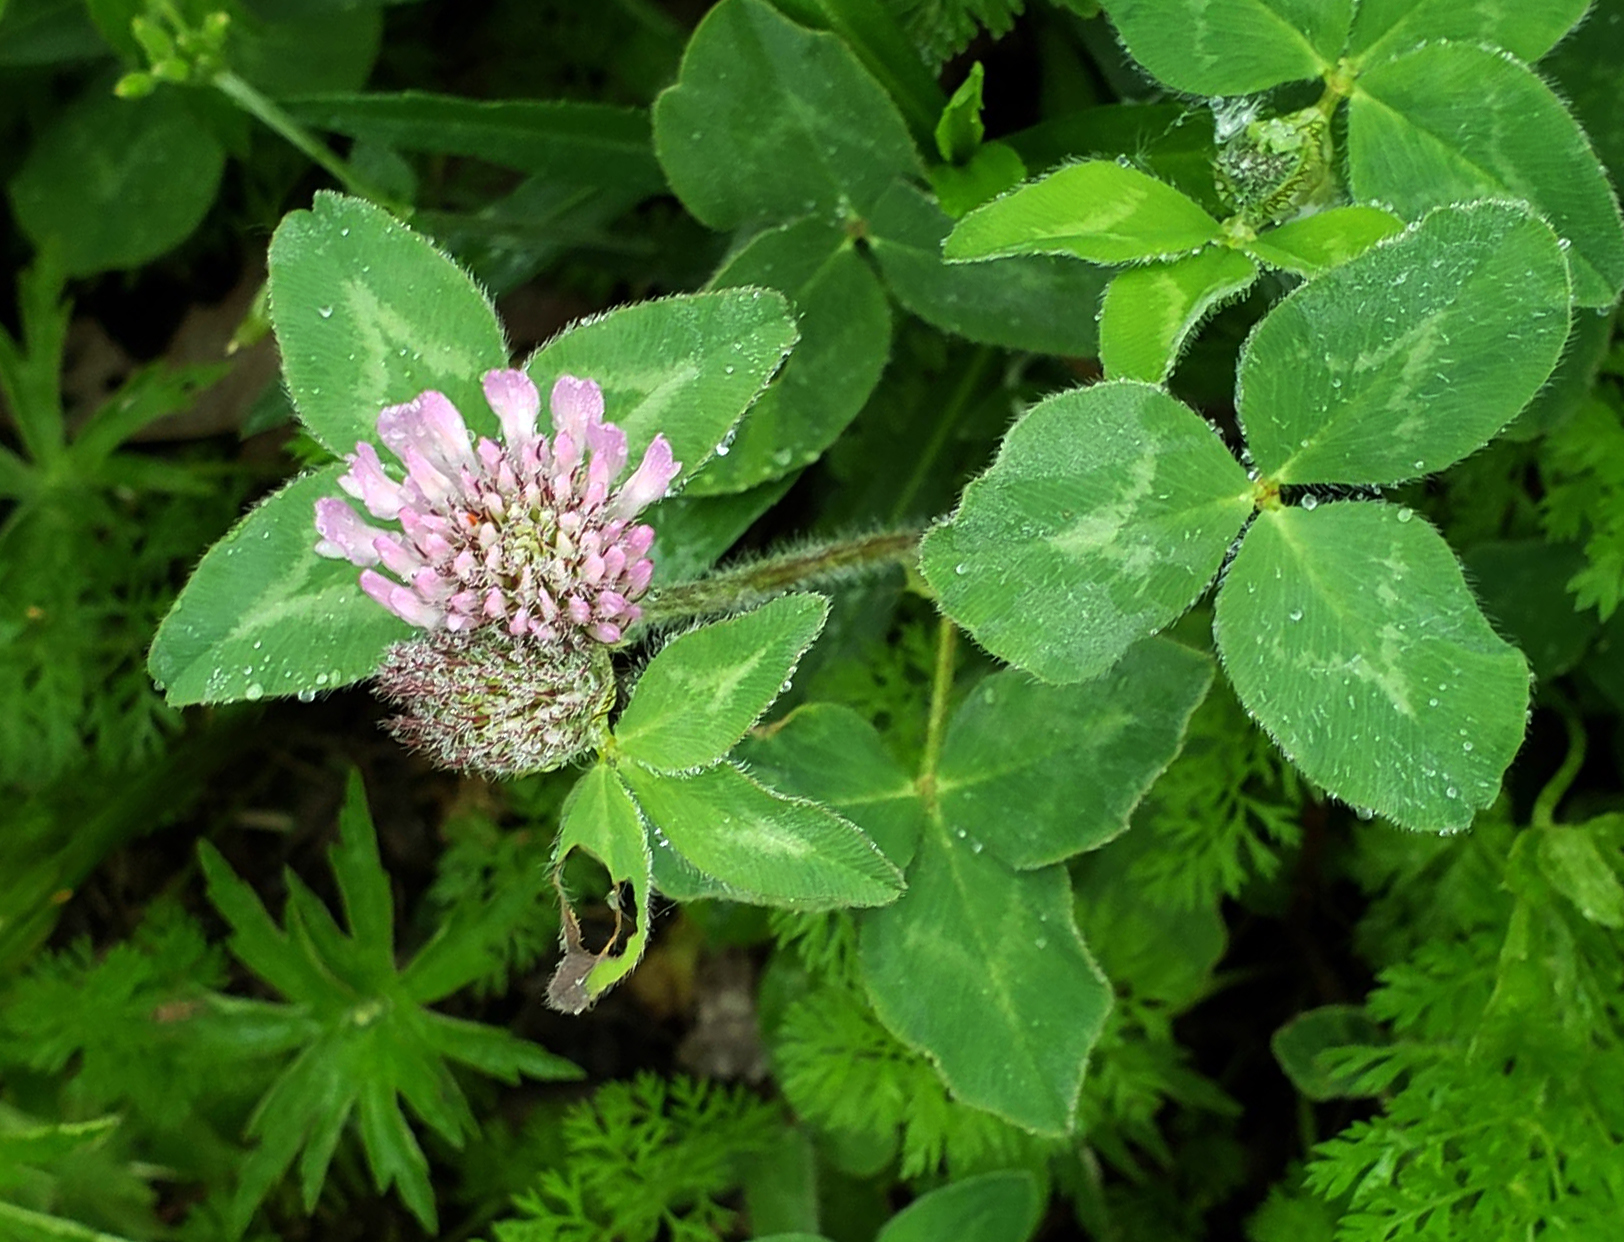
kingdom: Plantae
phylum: Tracheophyta
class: Magnoliopsida
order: Fabales
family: Fabaceae
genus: Trifolium
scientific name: Trifolium pratense
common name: Red clover
